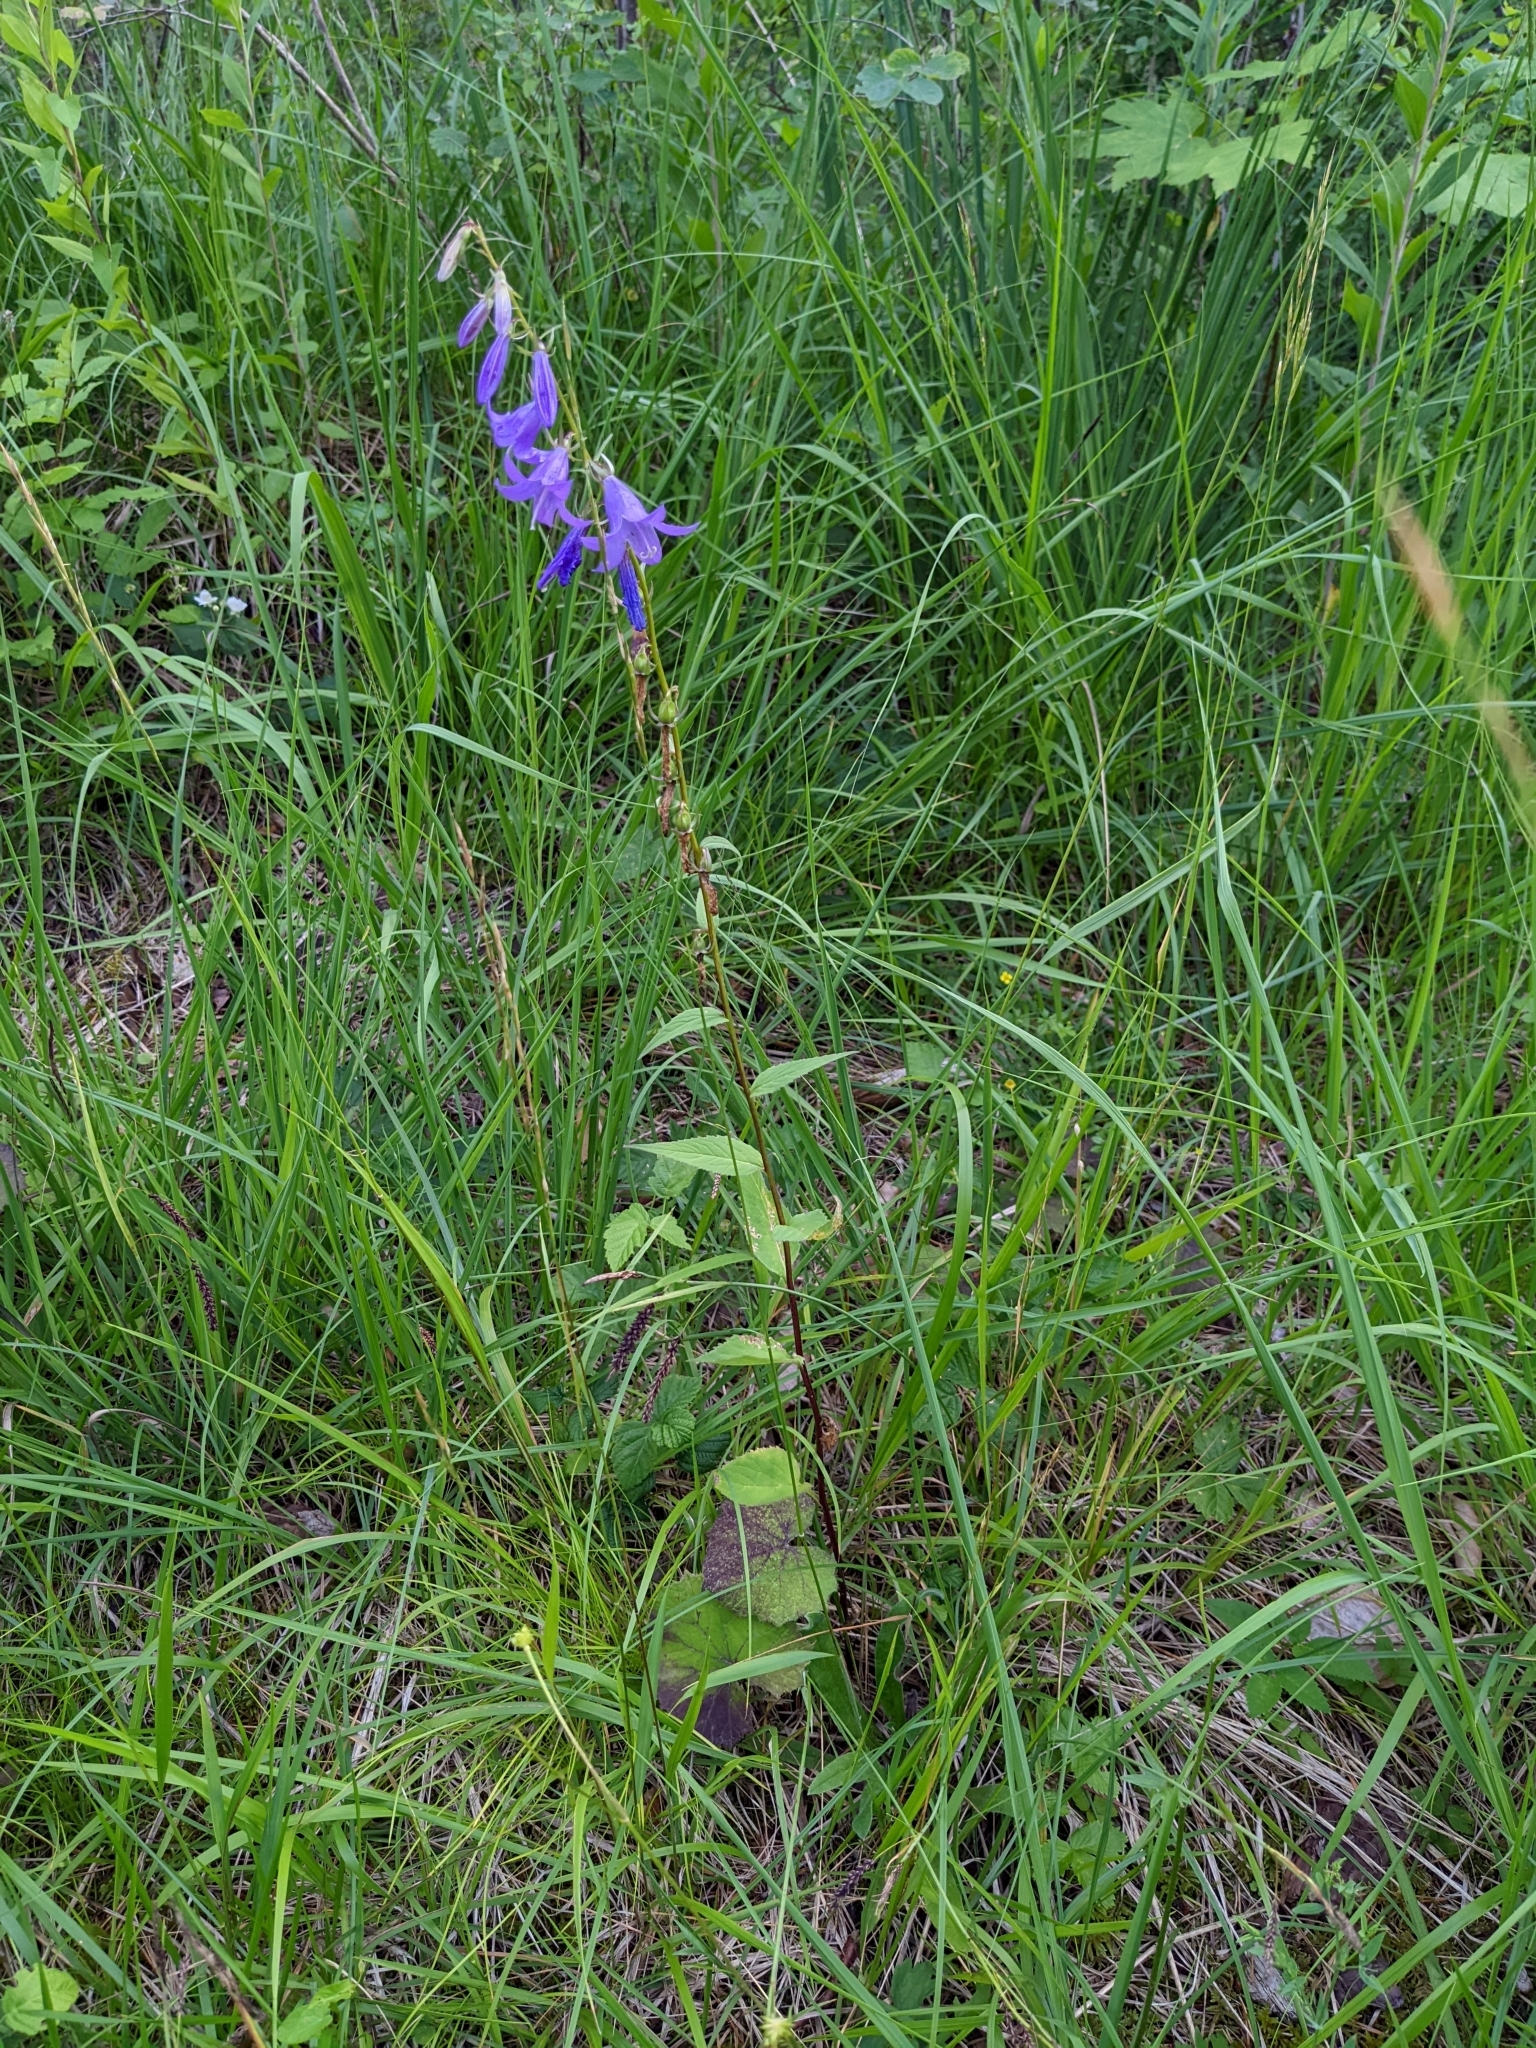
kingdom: Plantae
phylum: Tracheophyta
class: Magnoliopsida
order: Asterales
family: Campanulaceae
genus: Campanula
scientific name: Campanula rapunculoides
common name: Creeping bellflower
